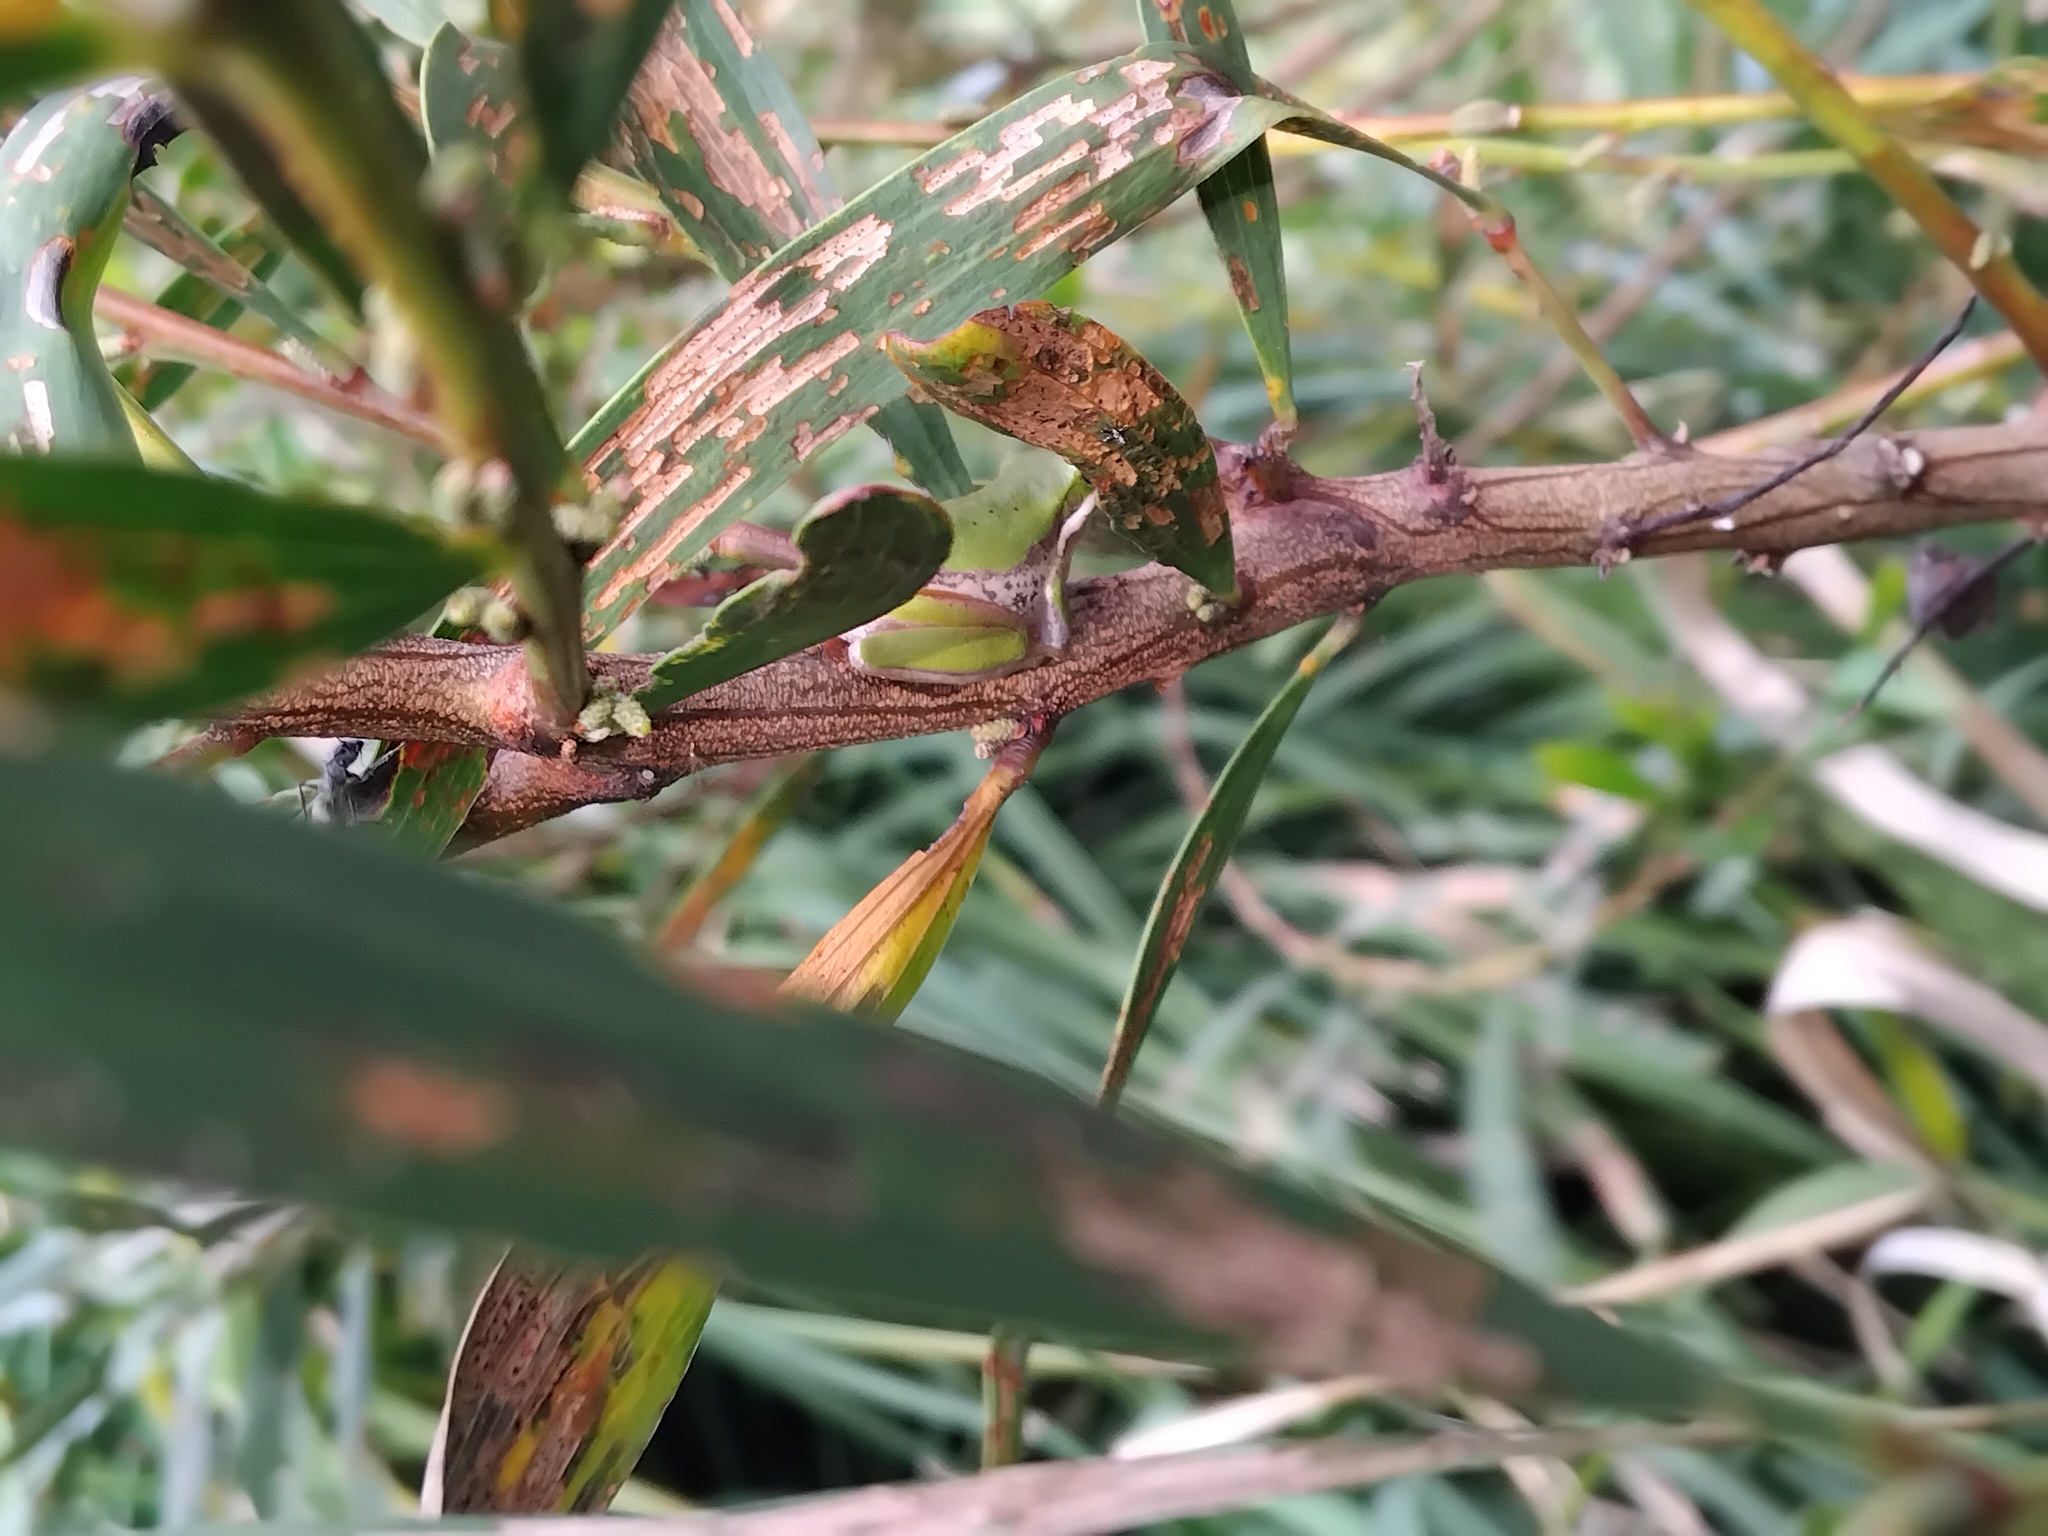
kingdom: Animalia
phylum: Chordata
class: Amphibia
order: Anura
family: Pelodryadidae
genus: Litoria
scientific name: Litoria fallax
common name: Eastern dwarf treefrog
